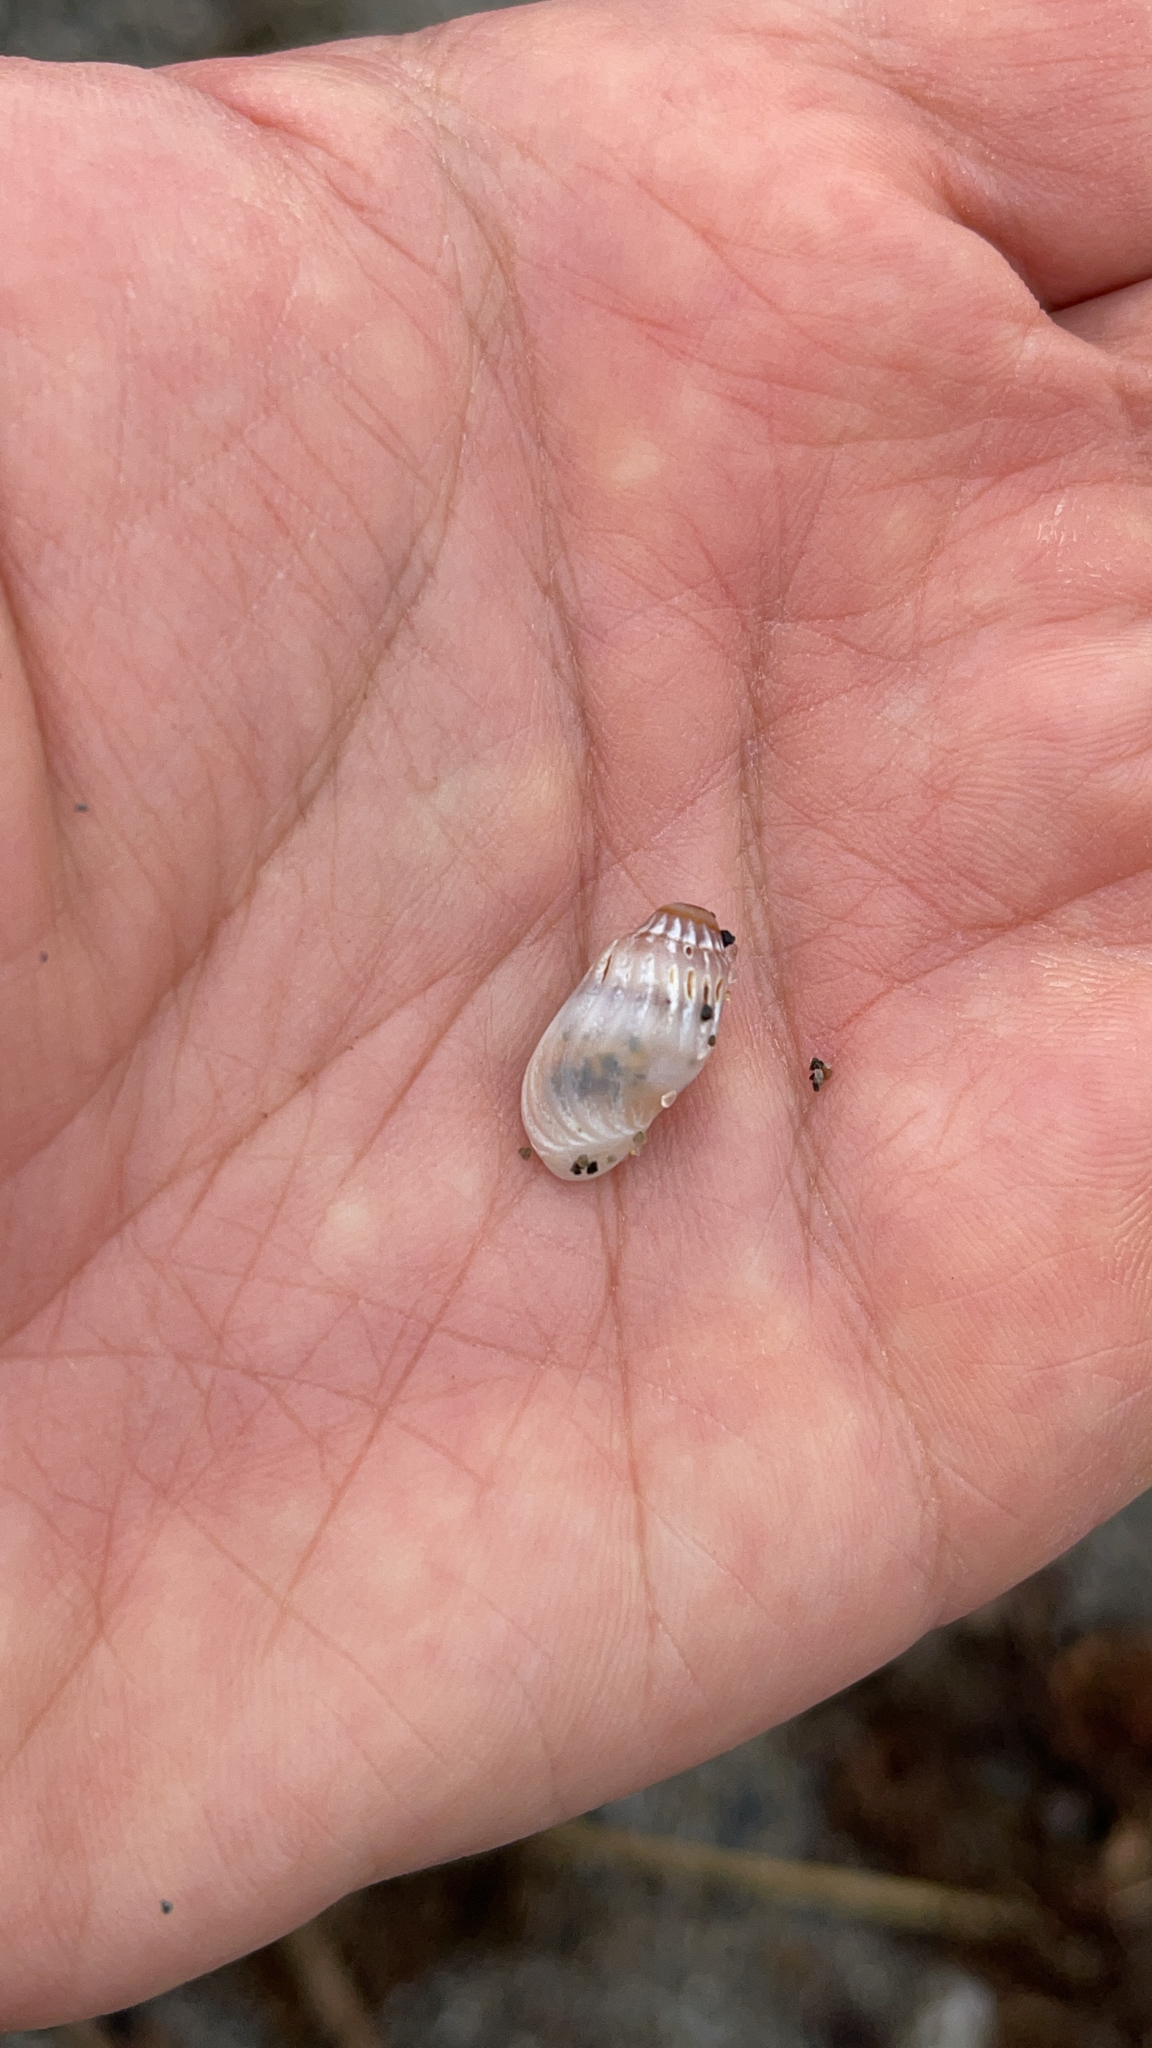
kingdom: Animalia
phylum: Mollusca
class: Gastropoda
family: Melanopsidae
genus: Melanopsis
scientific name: Melanopsis cariosa
